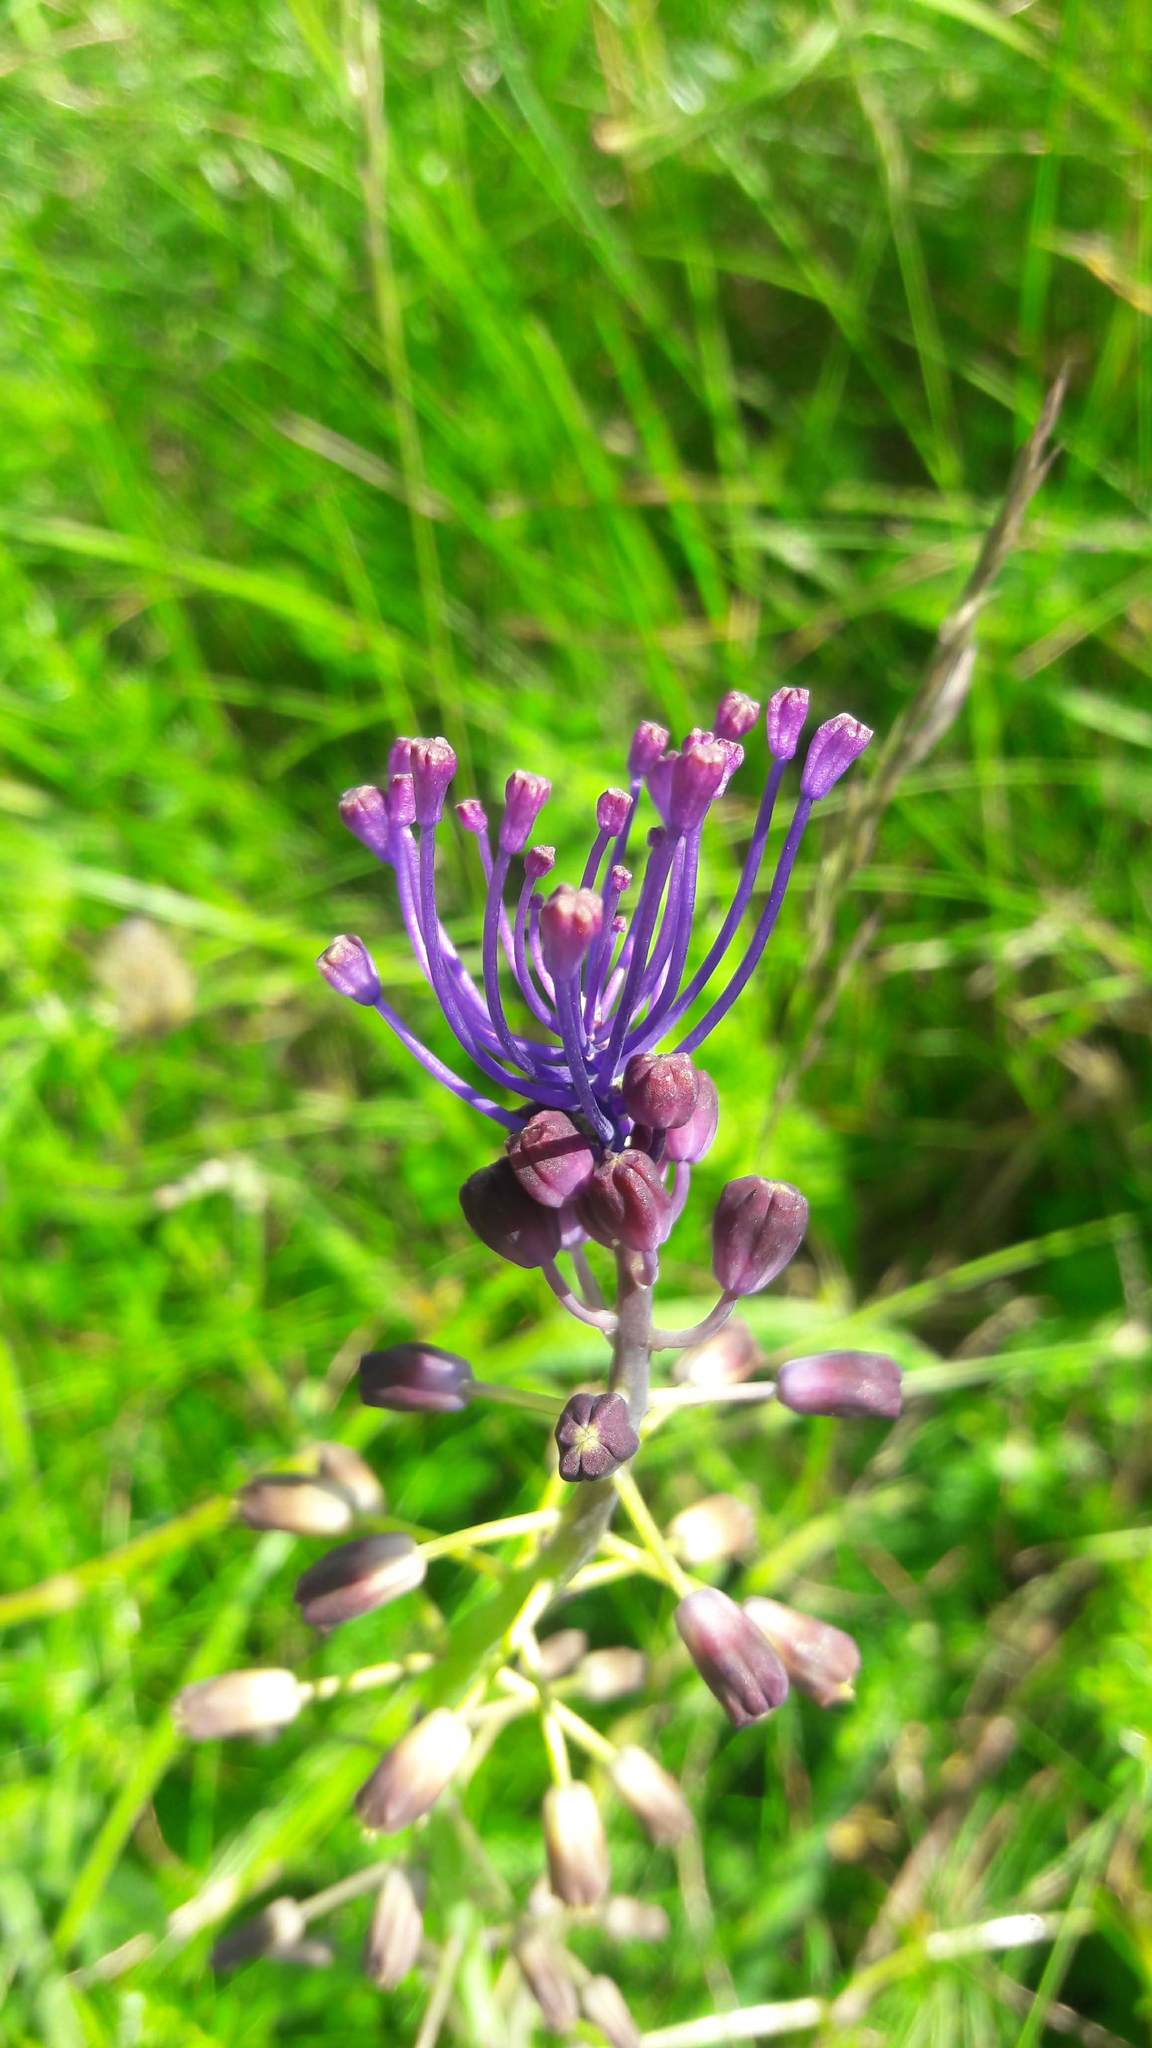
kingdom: Plantae
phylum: Tracheophyta
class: Liliopsida
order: Asparagales
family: Asparagaceae
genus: Muscari
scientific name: Muscari comosum
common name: Tassel hyacinth
